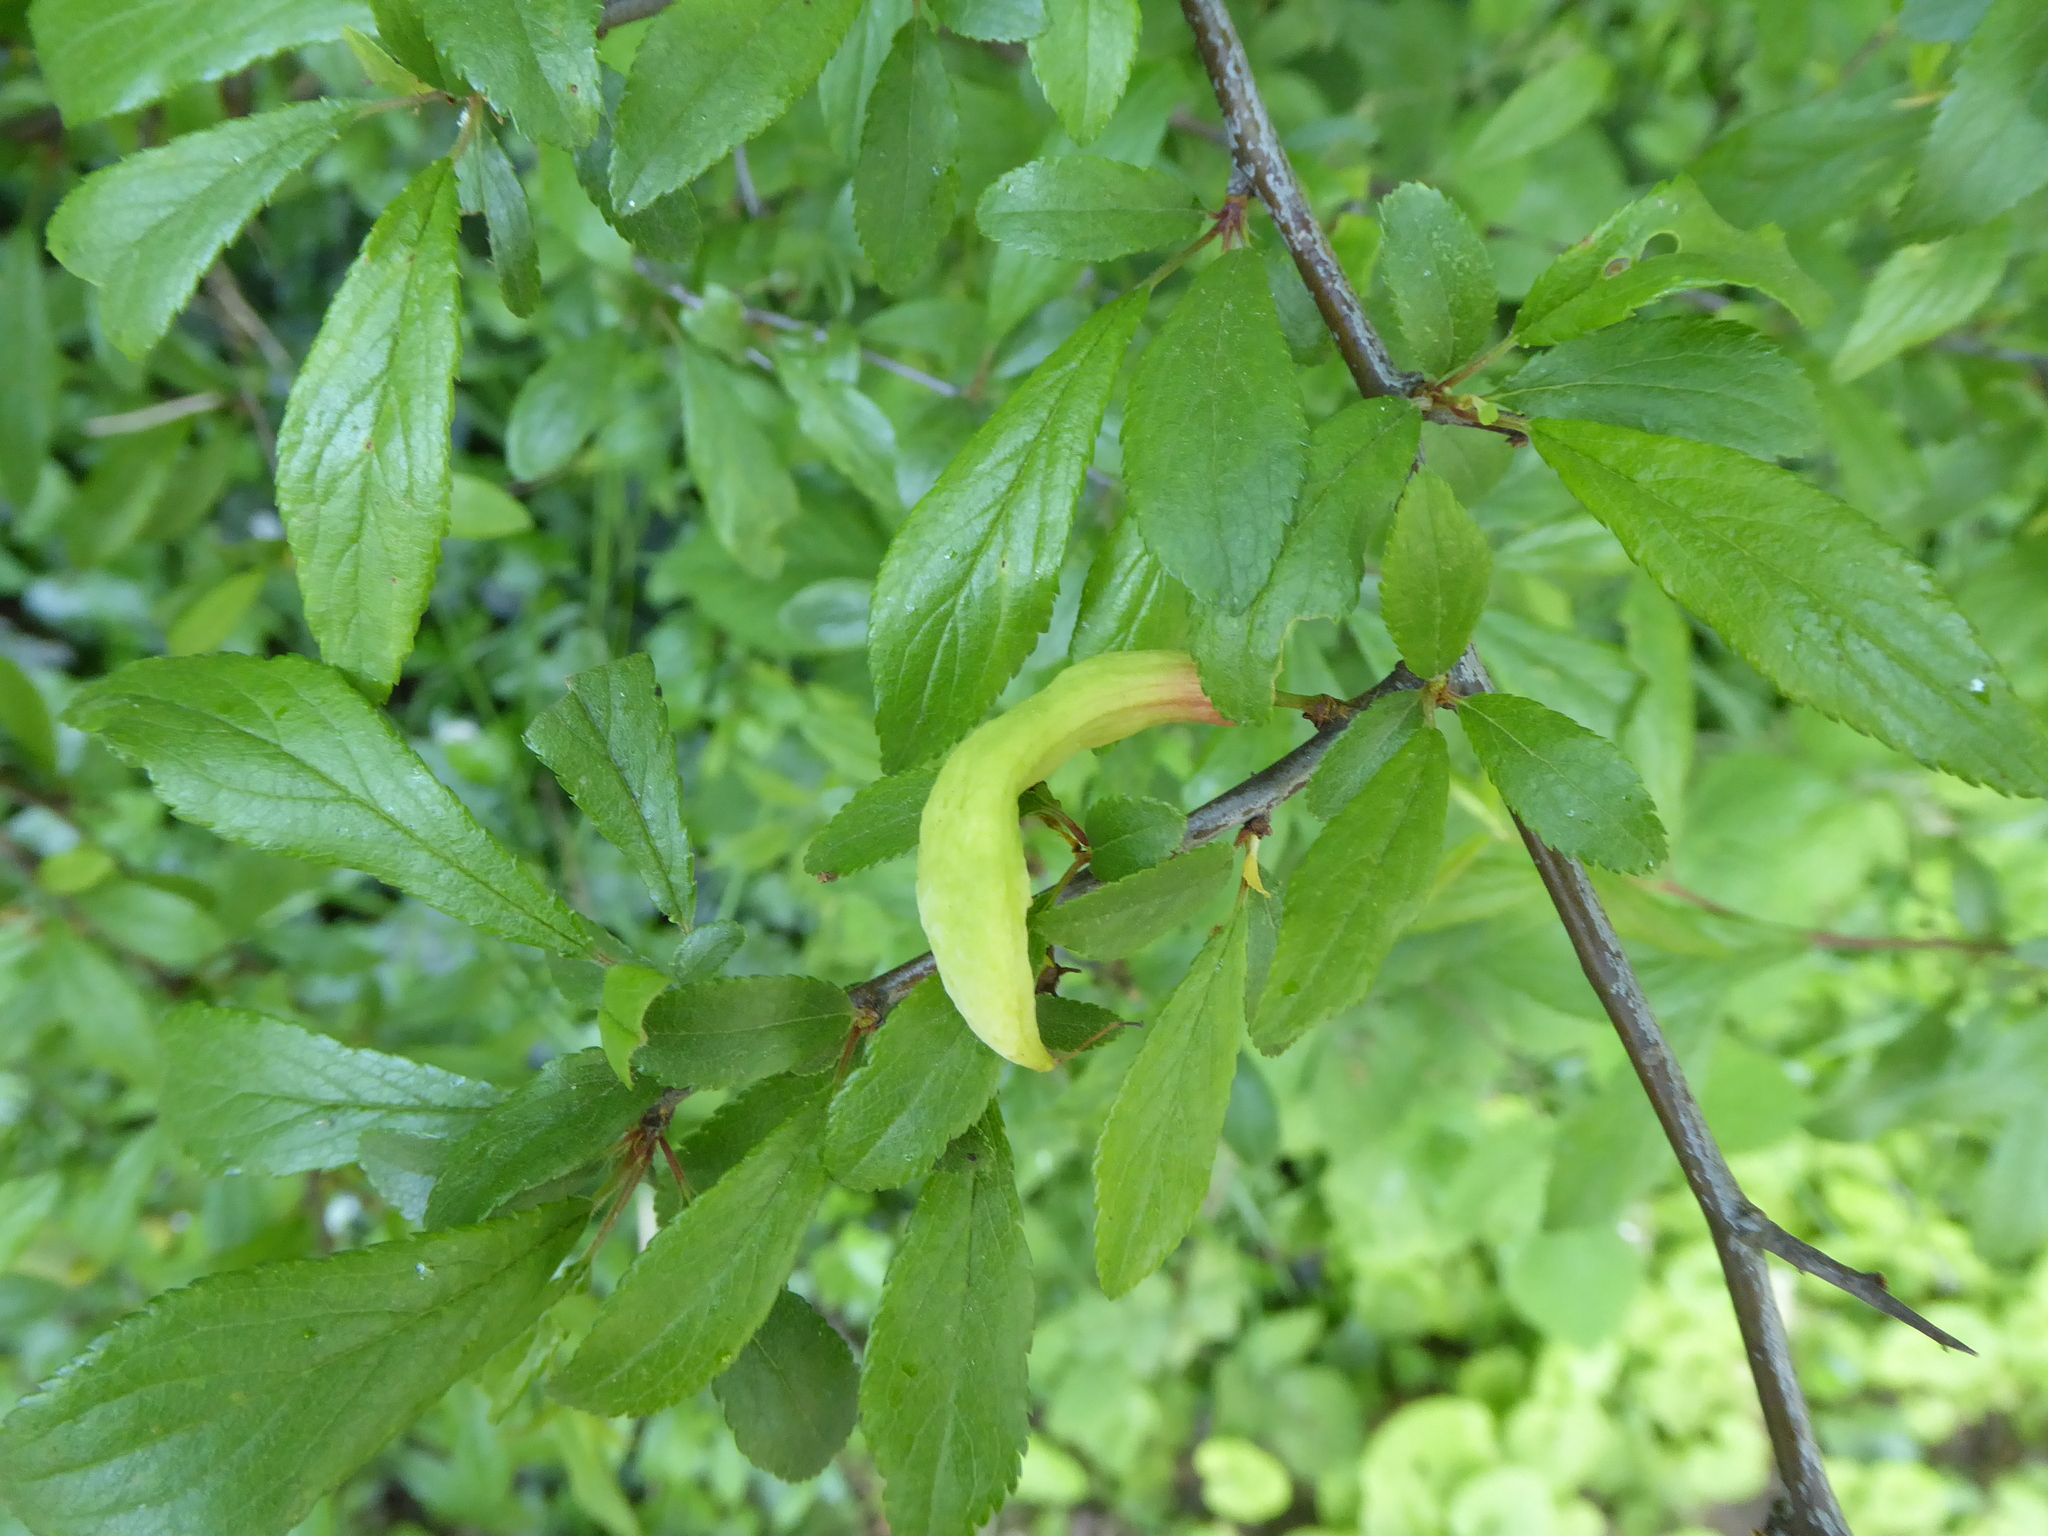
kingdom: Fungi
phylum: Ascomycota
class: Taphrinomycetes
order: Taphrinales
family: Taphrinaceae
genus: Taphrina
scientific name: Taphrina pruni
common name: Pocket plum
